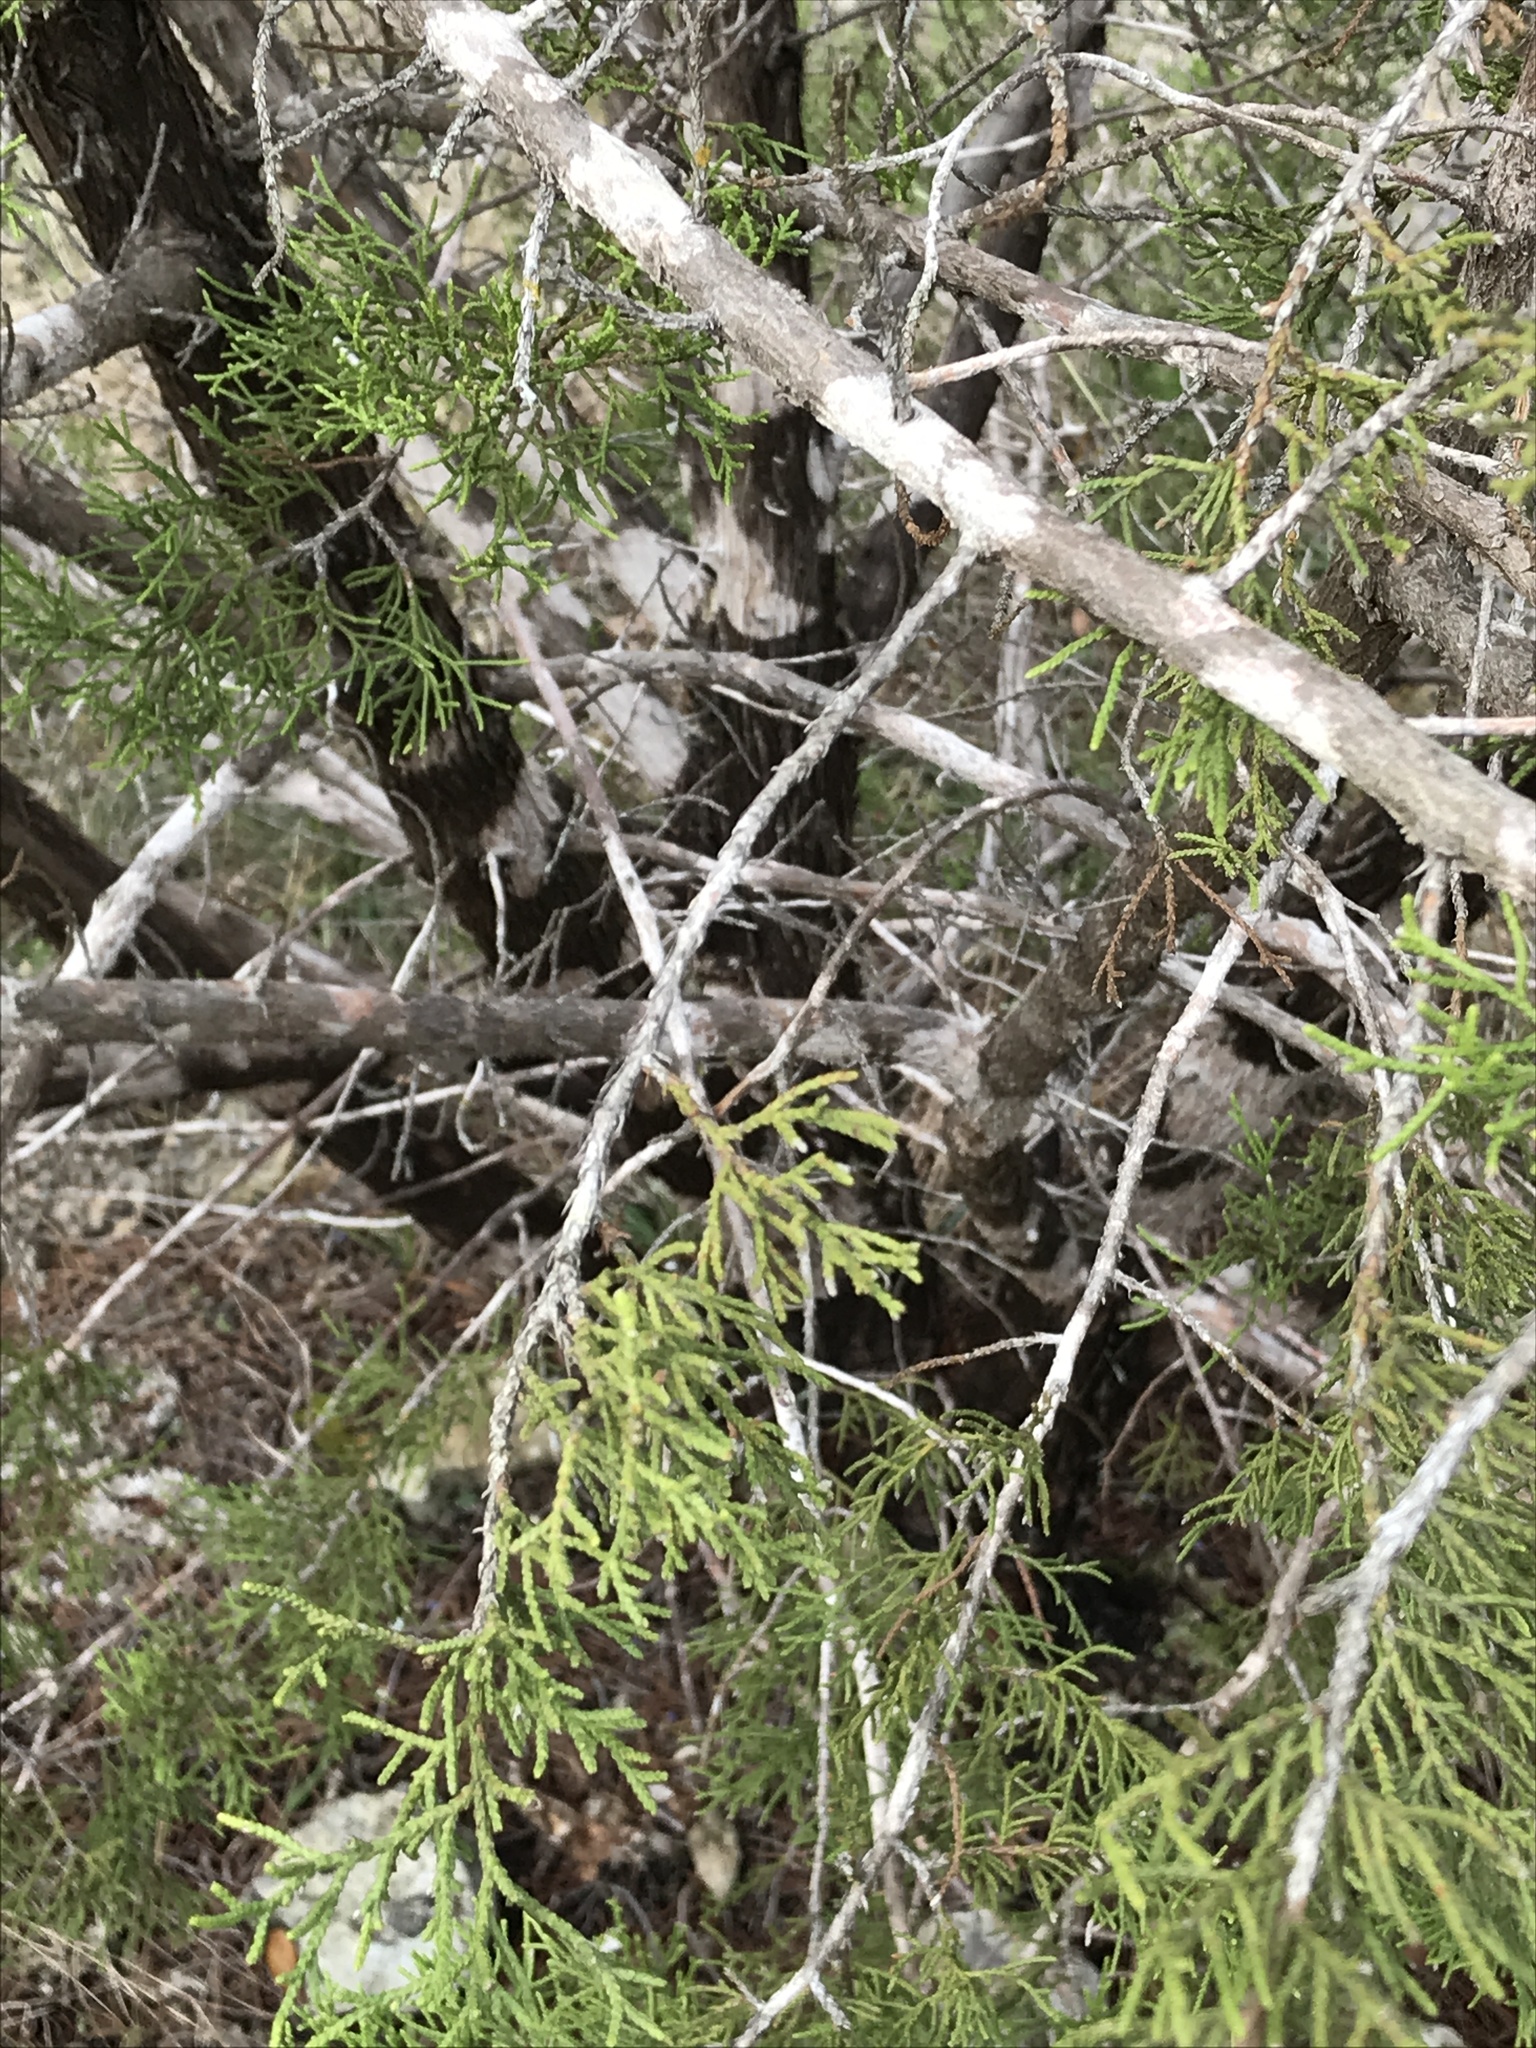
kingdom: Plantae
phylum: Tracheophyta
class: Pinopsida
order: Pinales
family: Cupressaceae
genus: Juniperus
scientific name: Juniperus ashei
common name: Mexican juniper
